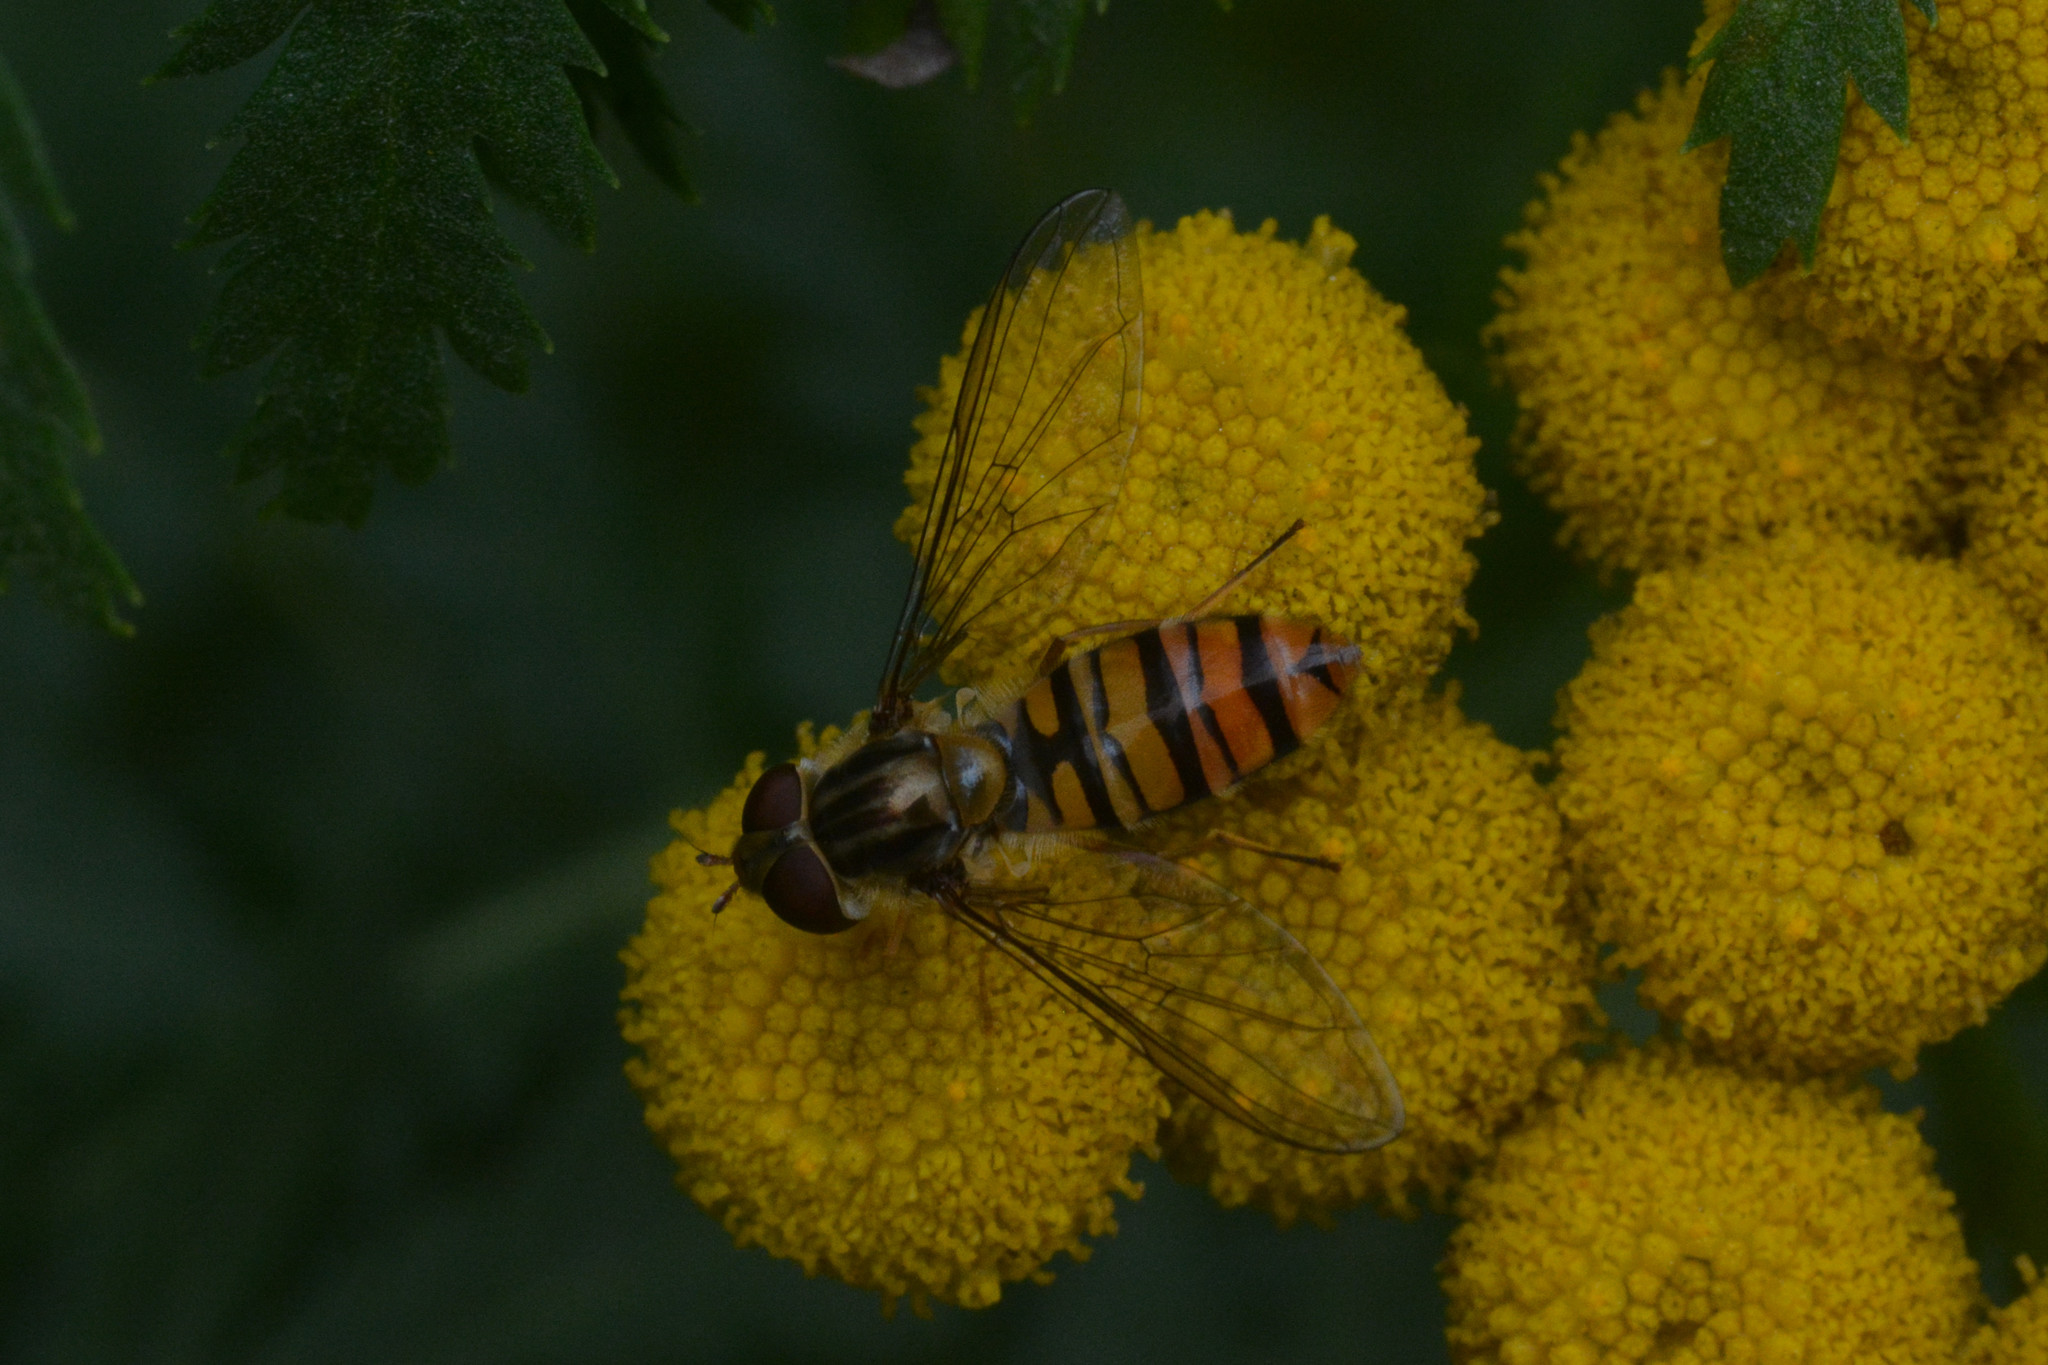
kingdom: Animalia
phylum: Arthropoda
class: Insecta
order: Diptera
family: Syrphidae
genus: Episyrphus
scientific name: Episyrphus balteatus
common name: Marmalade hoverfly
